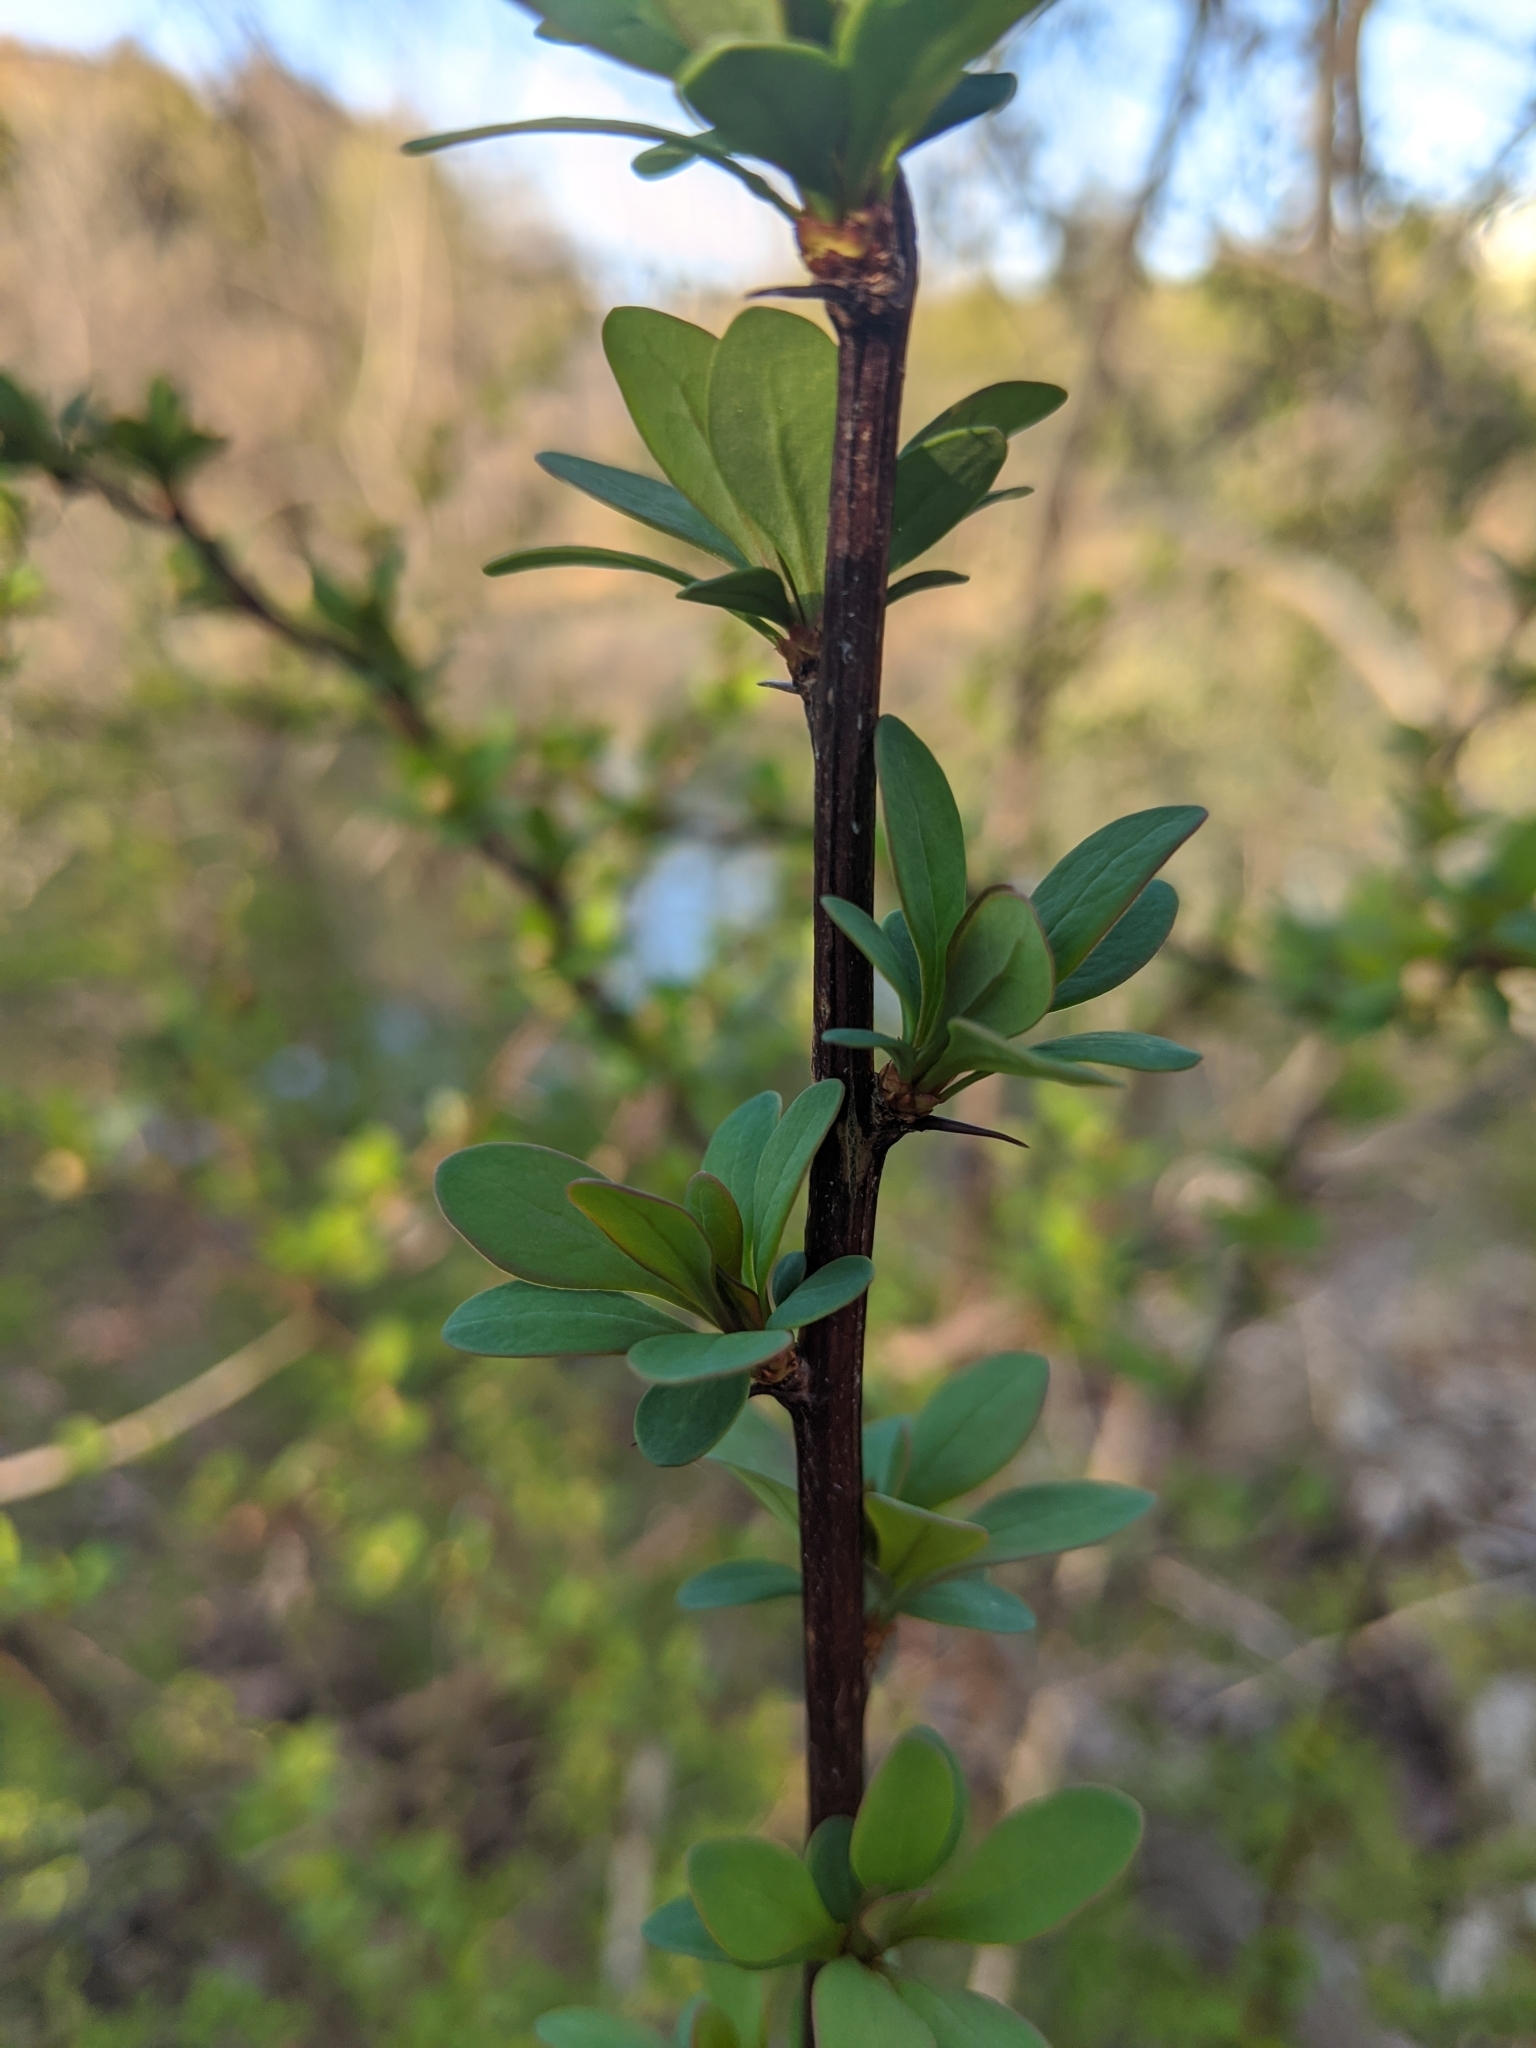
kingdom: Plantae
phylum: Tracheophyta
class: Magnoliopsida
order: Ranunculales
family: Berberidaceae
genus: Berberis
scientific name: Berberis thunbergii
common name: Japanese barberry
